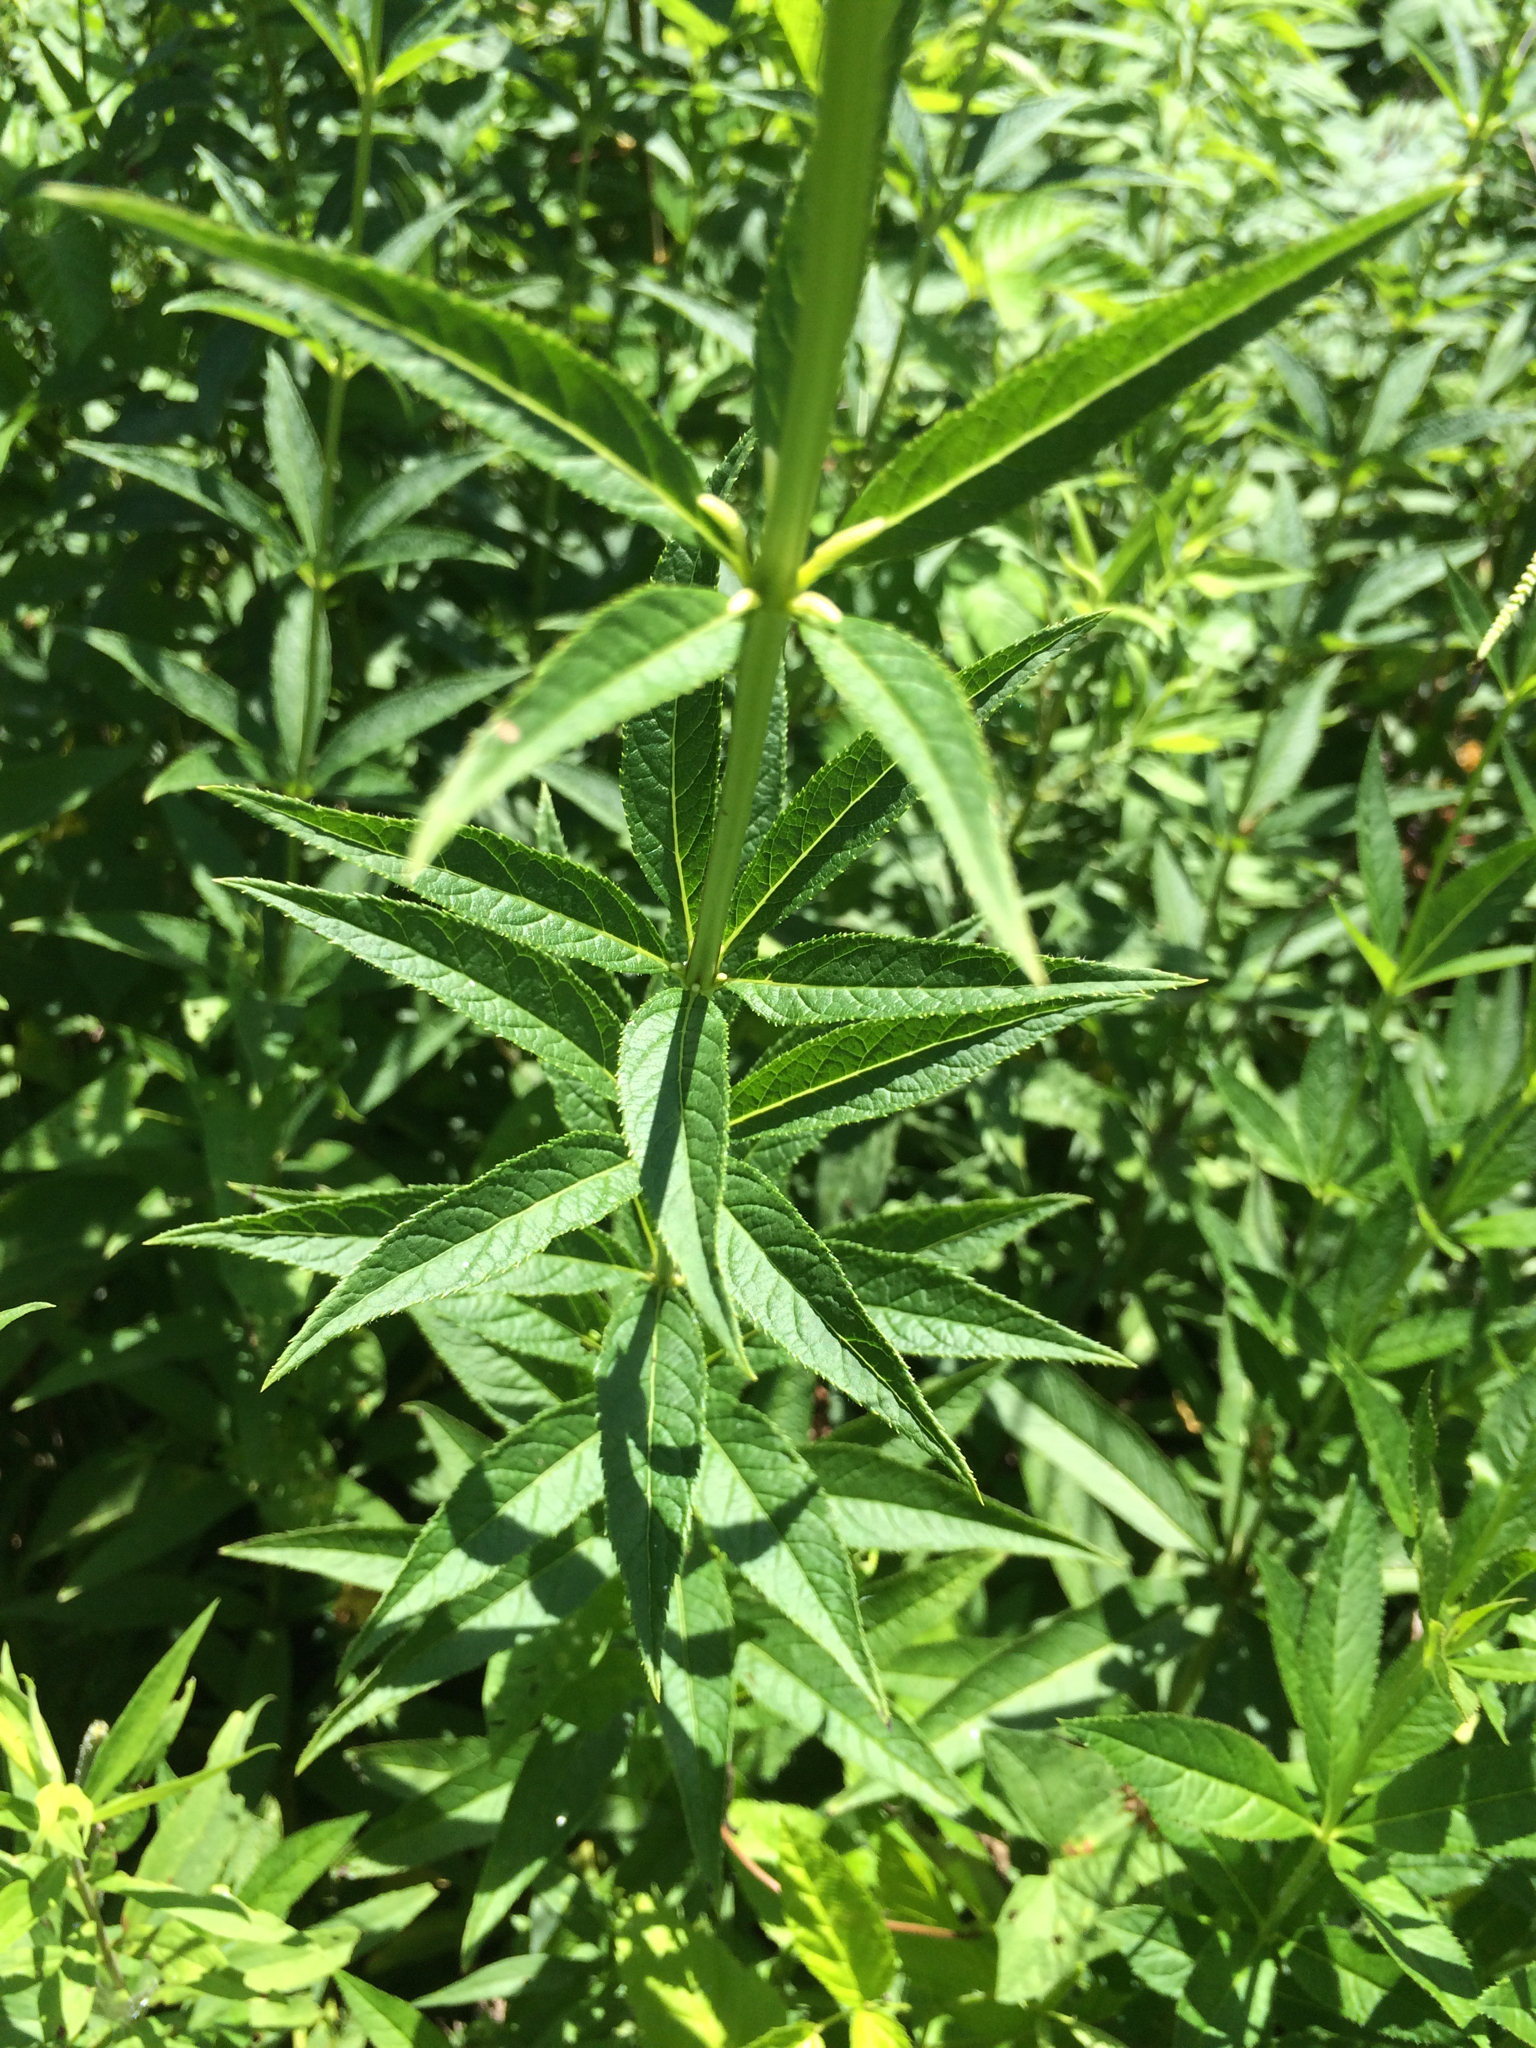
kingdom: Plantae
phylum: Tracheophyta
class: Magnoliopsida
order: Lamiales
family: Plantaginaceae
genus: Veronicastrum
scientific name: Veronicastrum virginicum
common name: Blackroot
